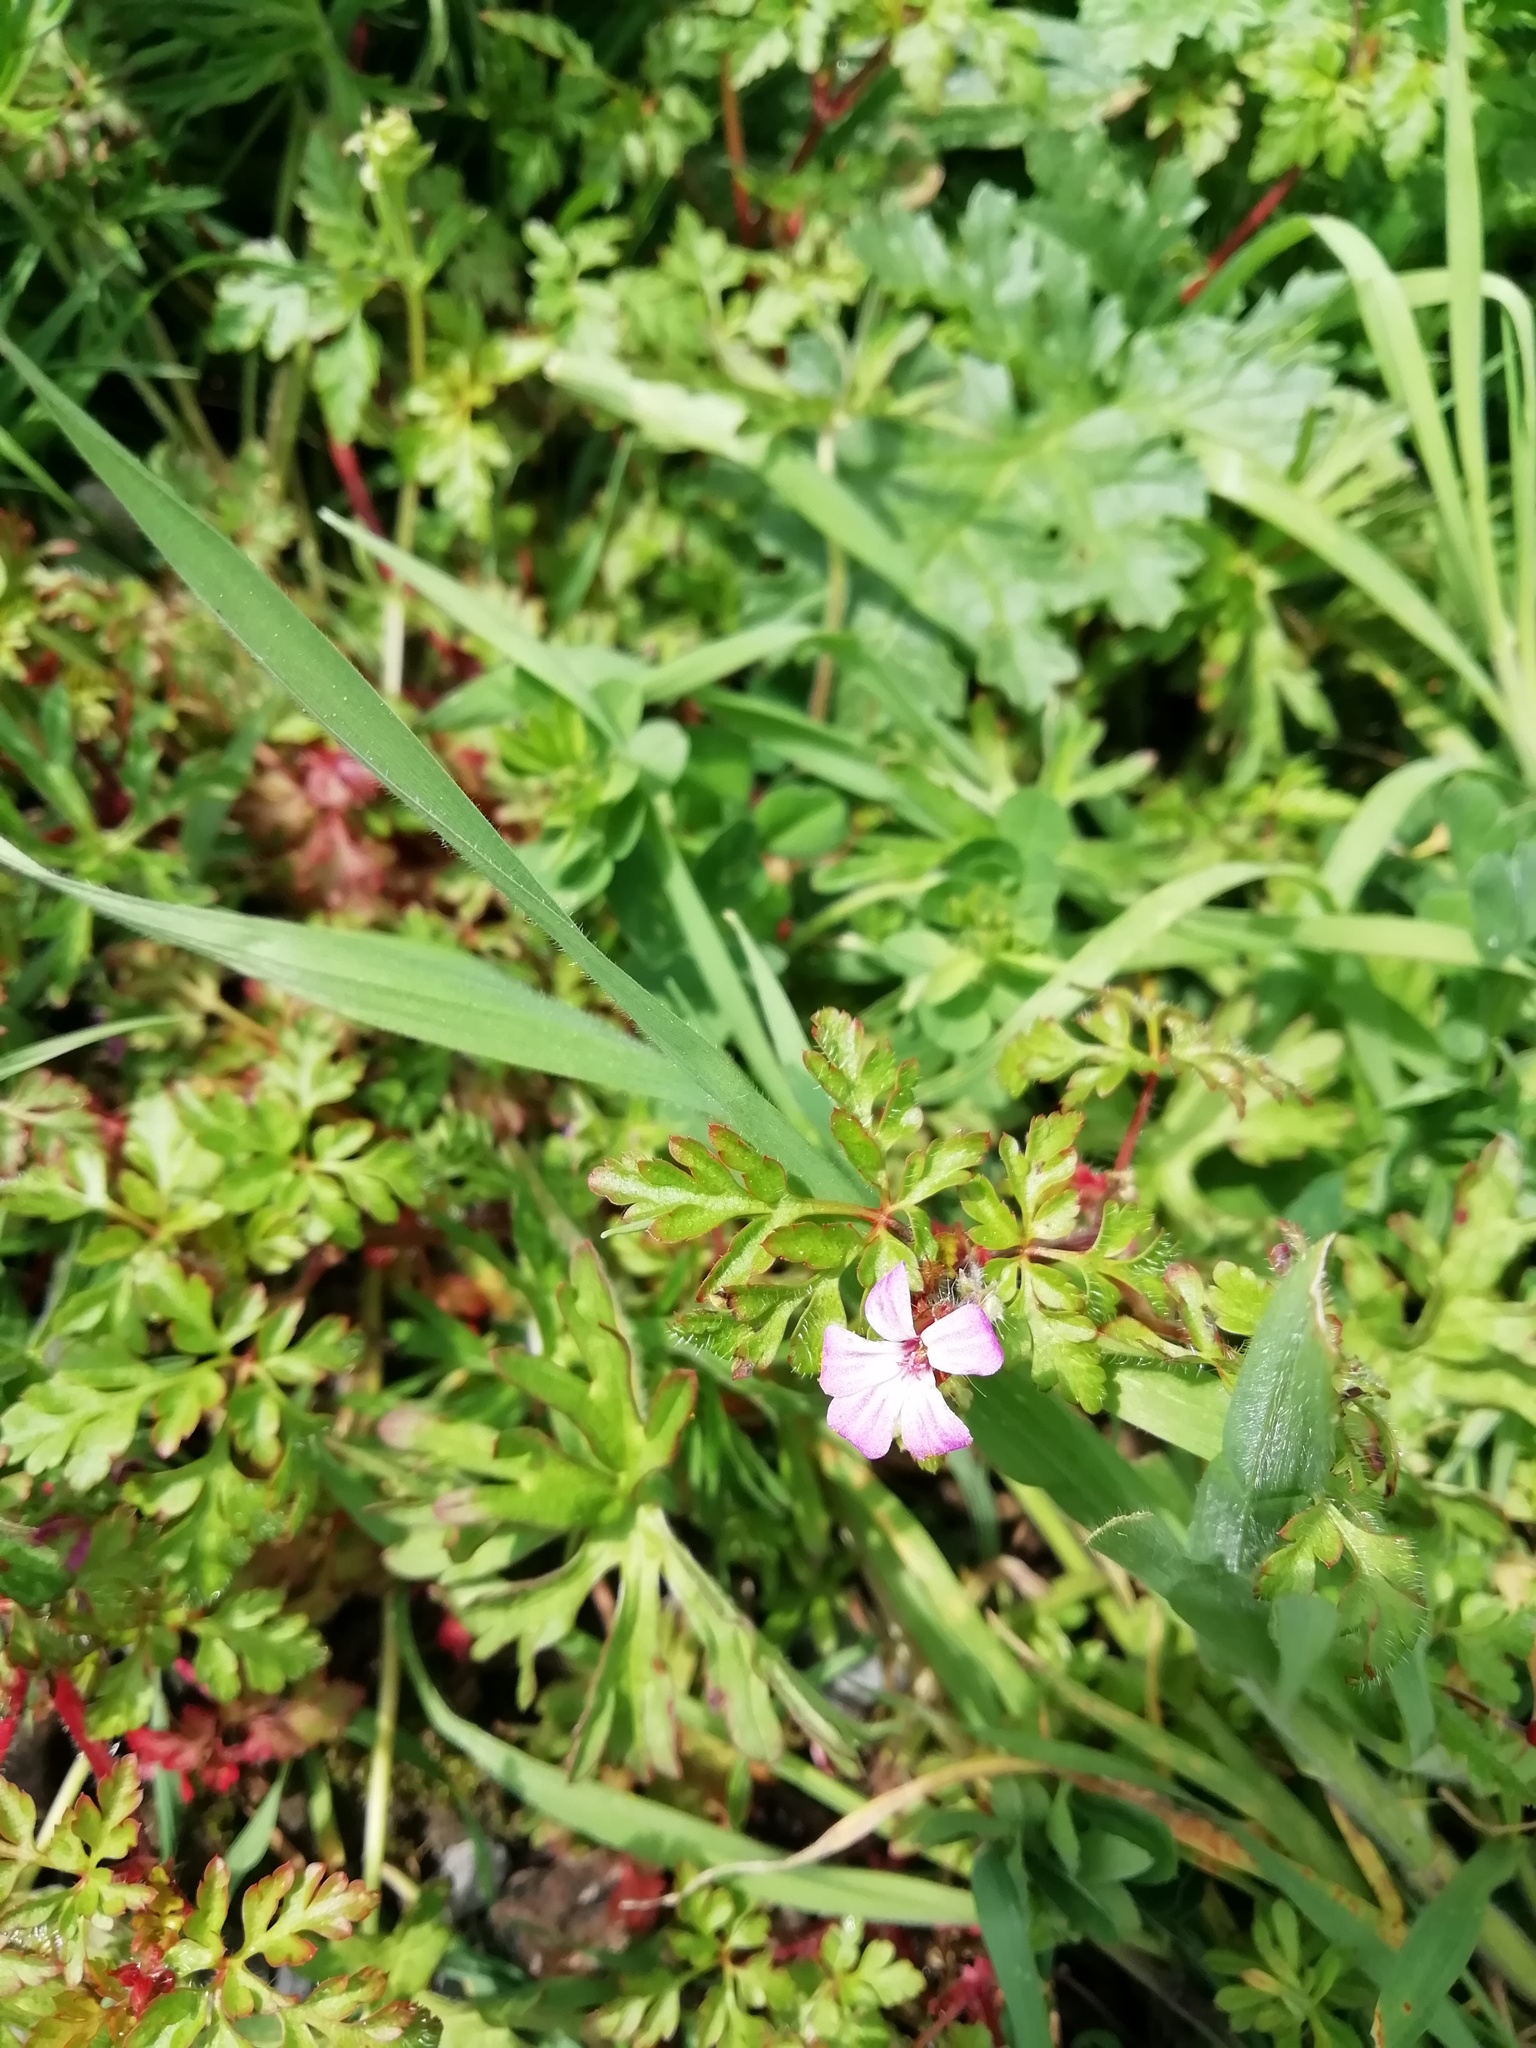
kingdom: Plantae
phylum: Tracheophyta
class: Magnoliopsida
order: Geraniales
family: Geraniaceae
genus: Geranium
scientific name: Geranium robertianum
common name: Herb-robert
